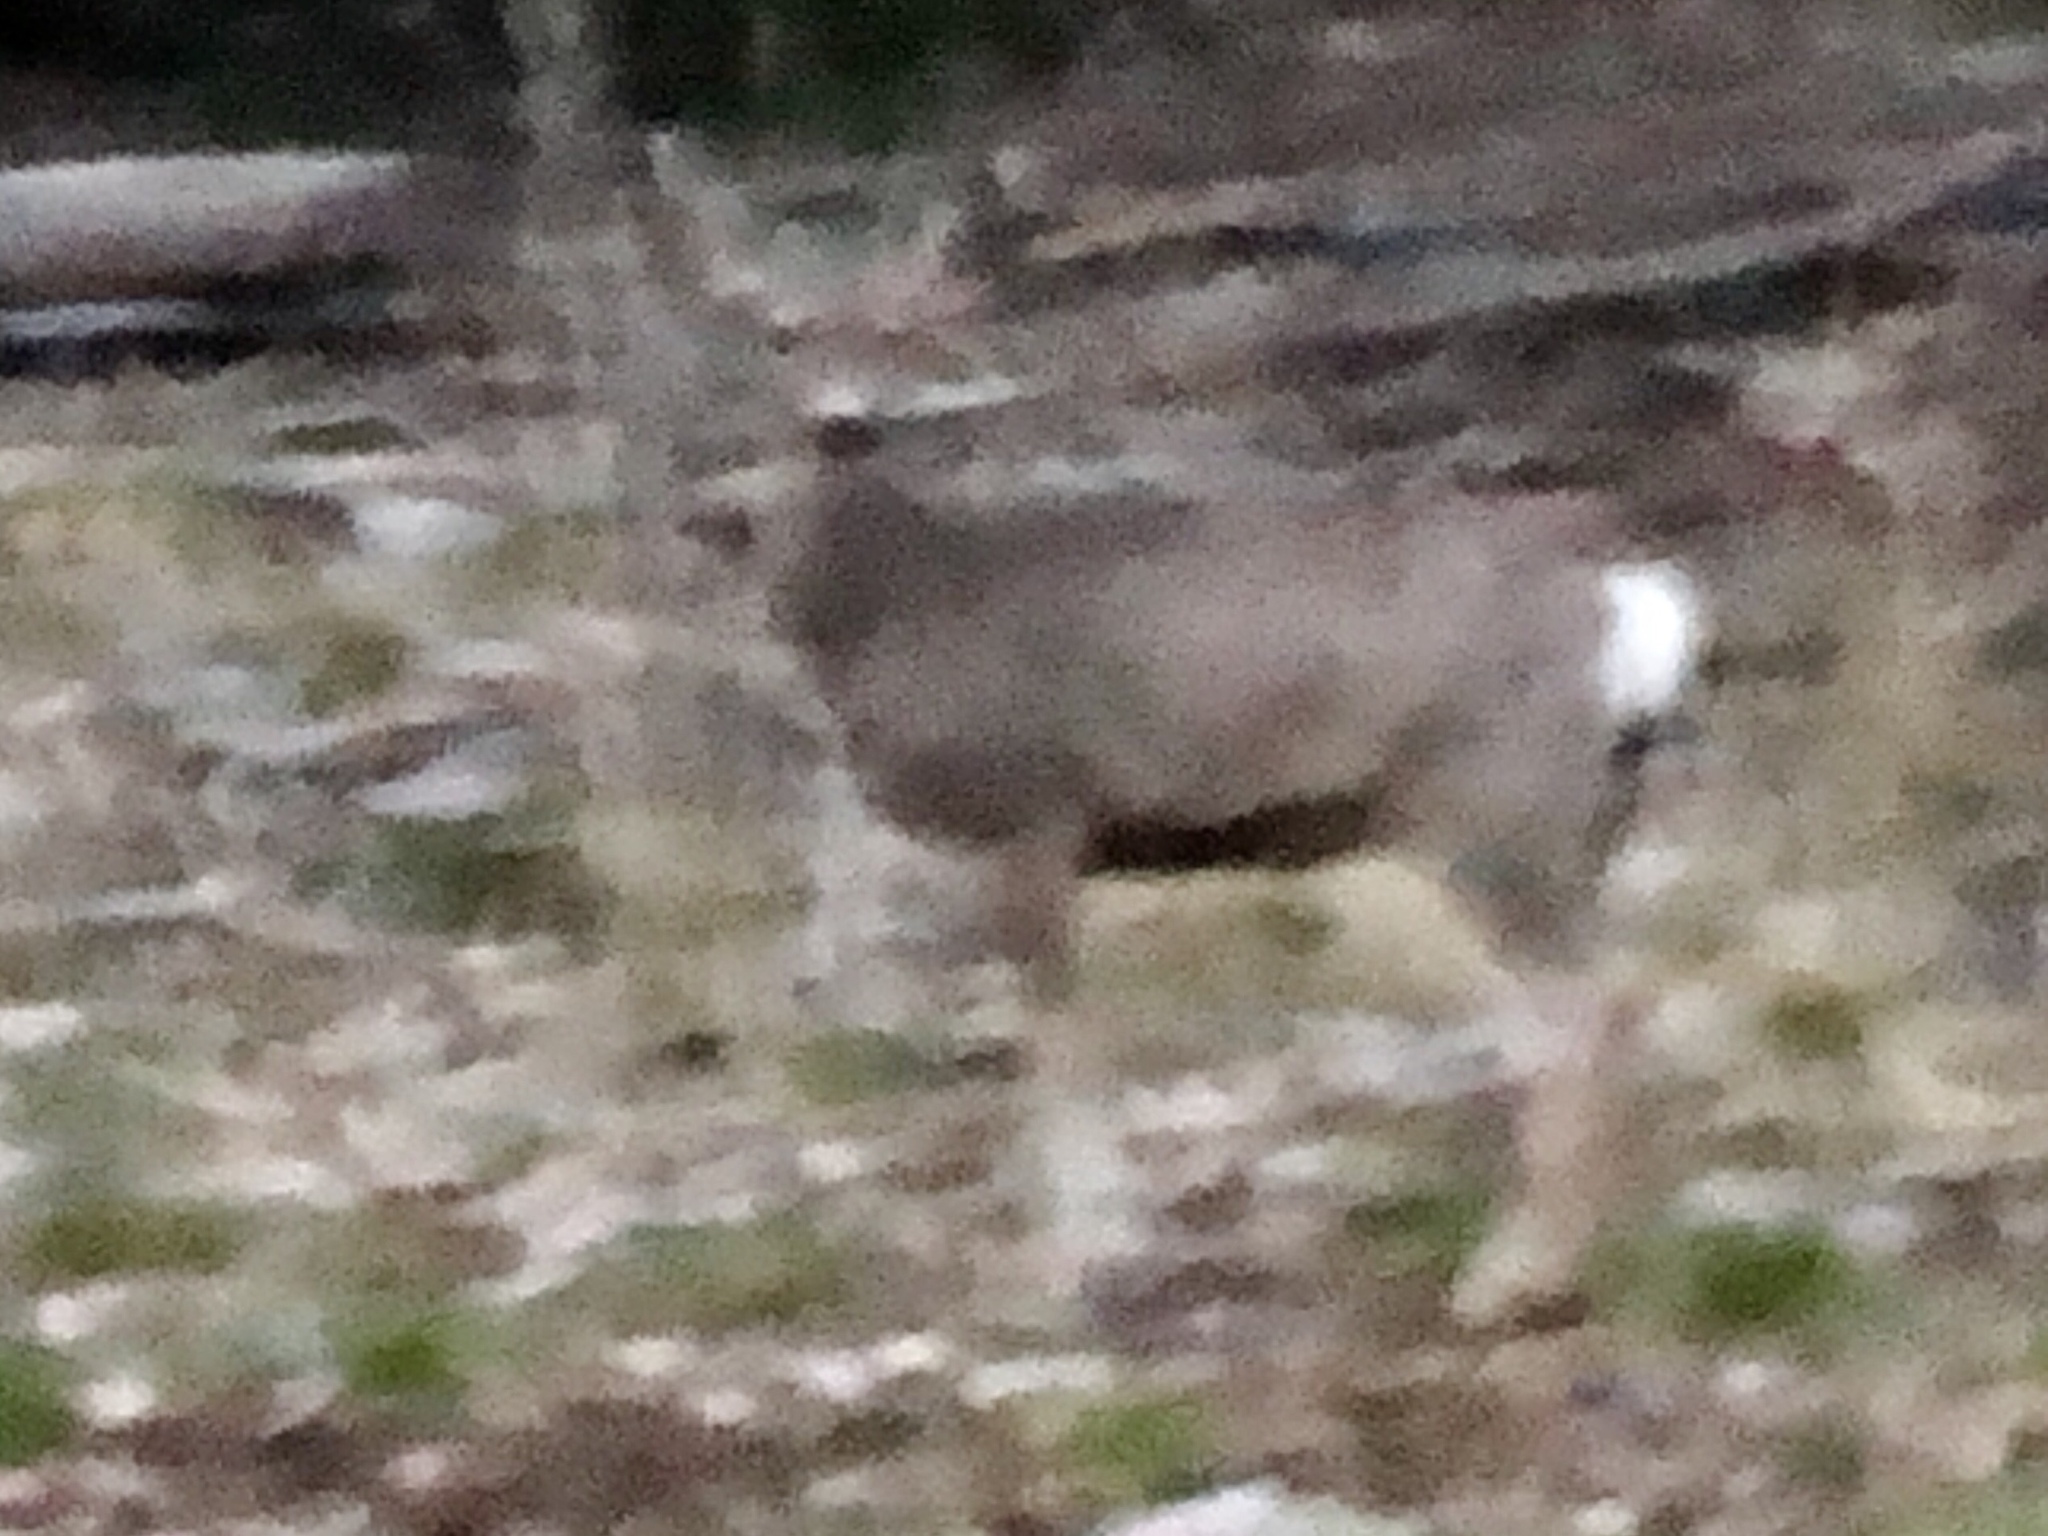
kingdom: Animalia
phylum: Chordata
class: Mammalia
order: Artiodactyla
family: Cervidae
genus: Odocoileus
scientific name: Odocoileus hemionus
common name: Mule deer
